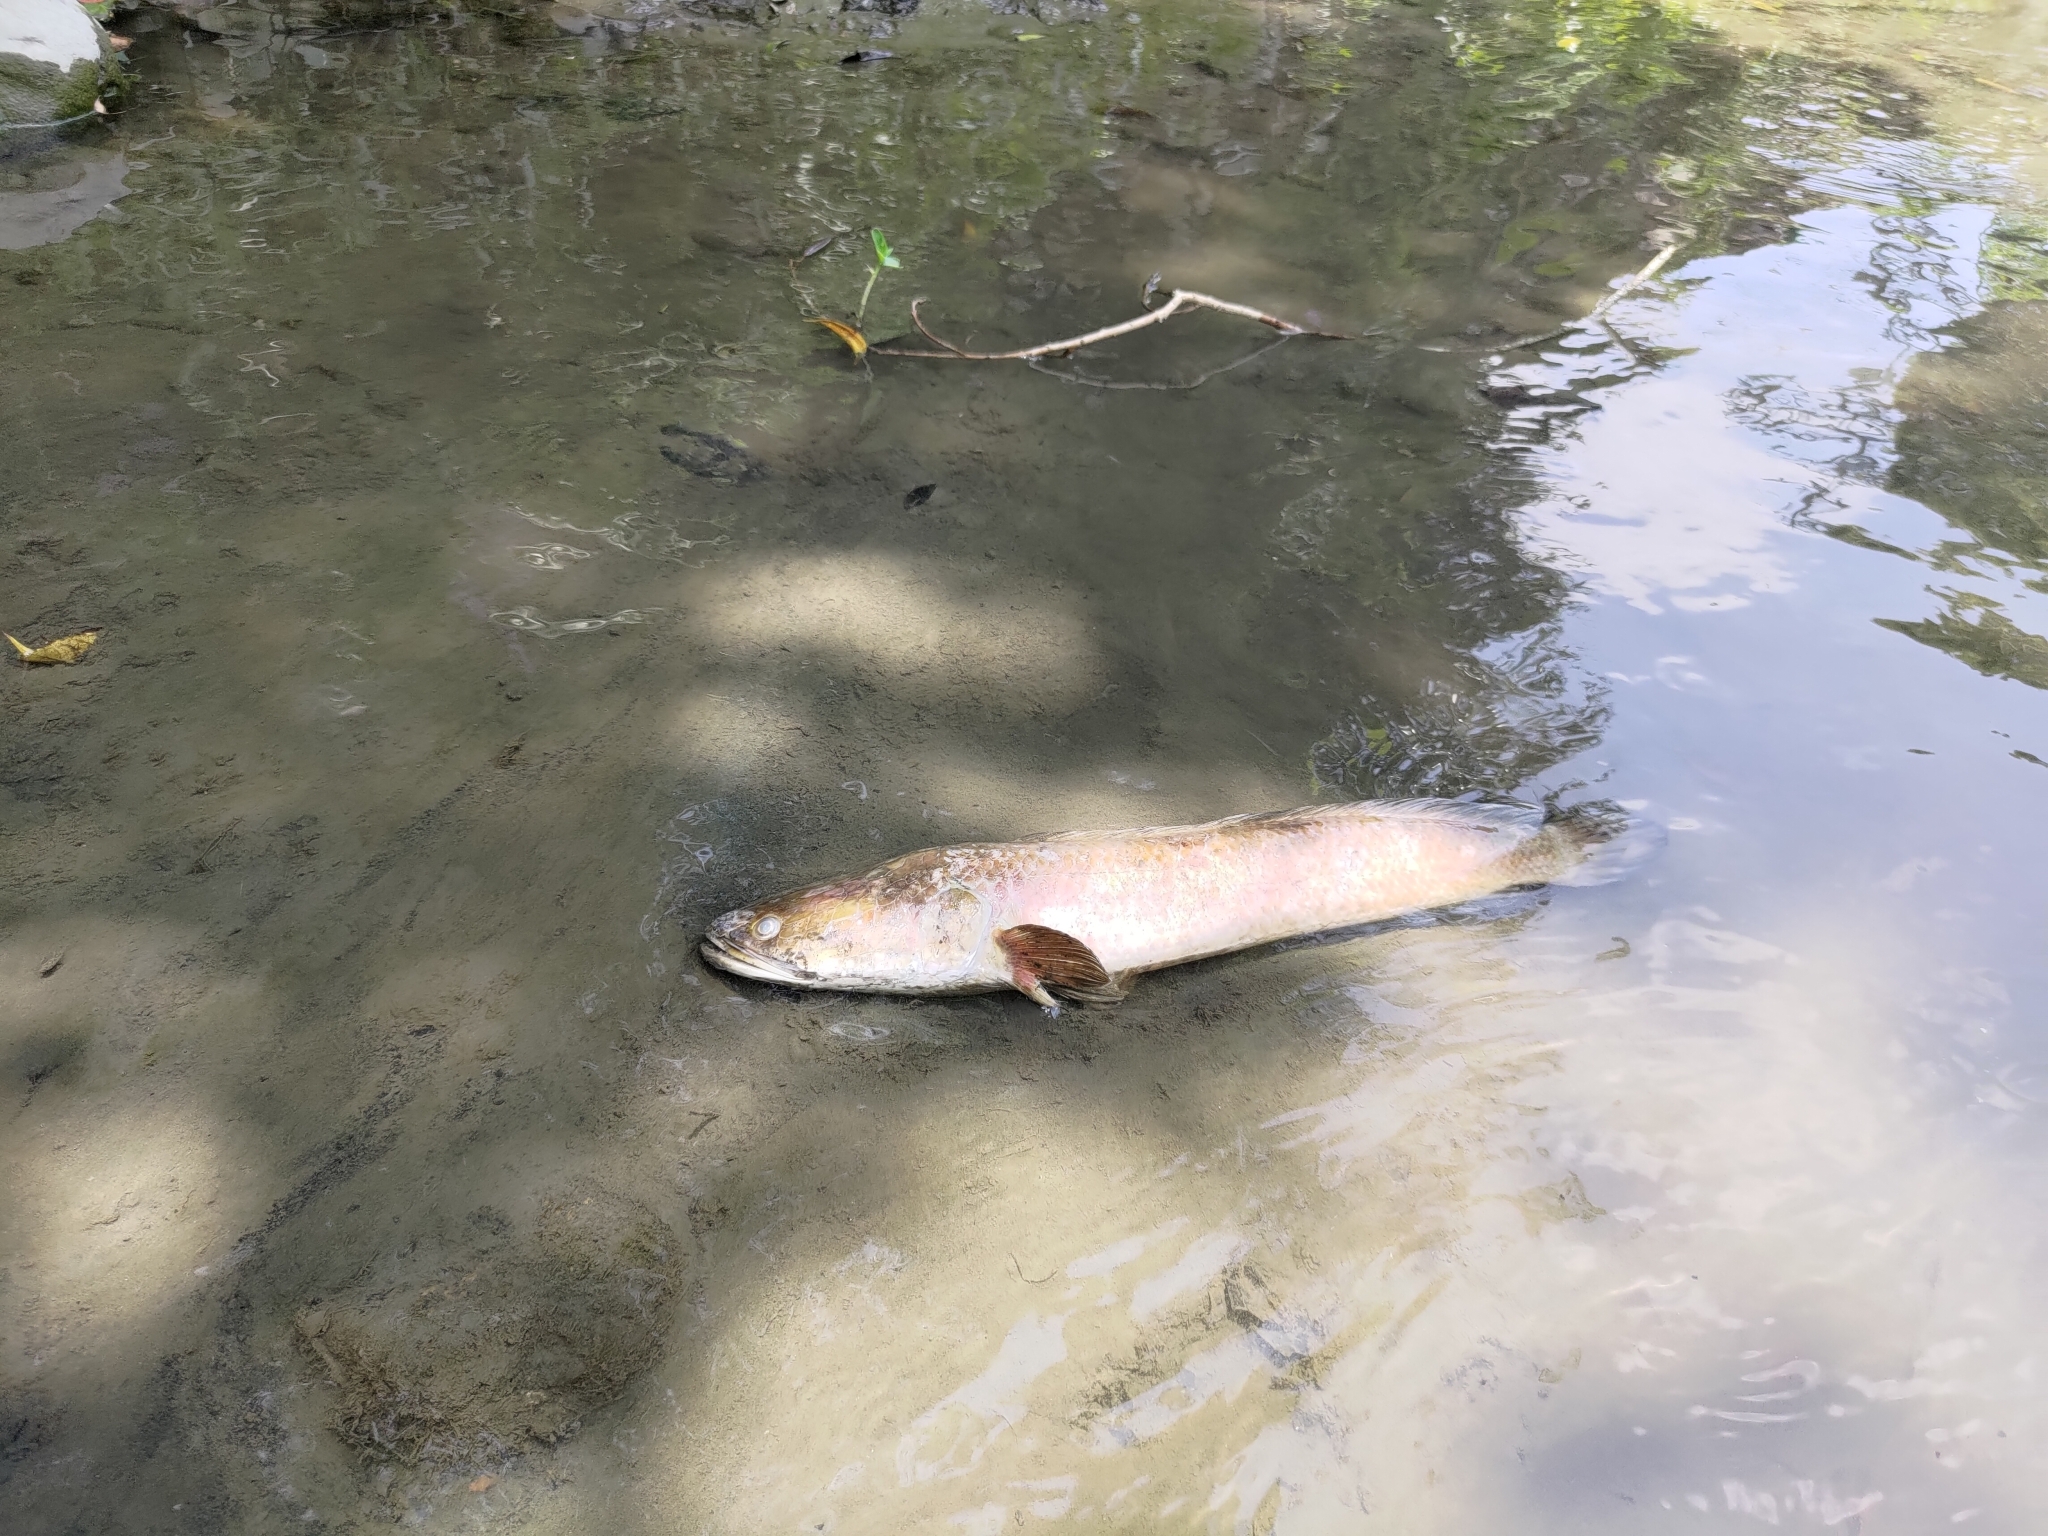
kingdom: Animalia
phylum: Chordata
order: Perciformes
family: Channidae
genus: Channa
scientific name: Channa striata
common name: Striped snakehead
